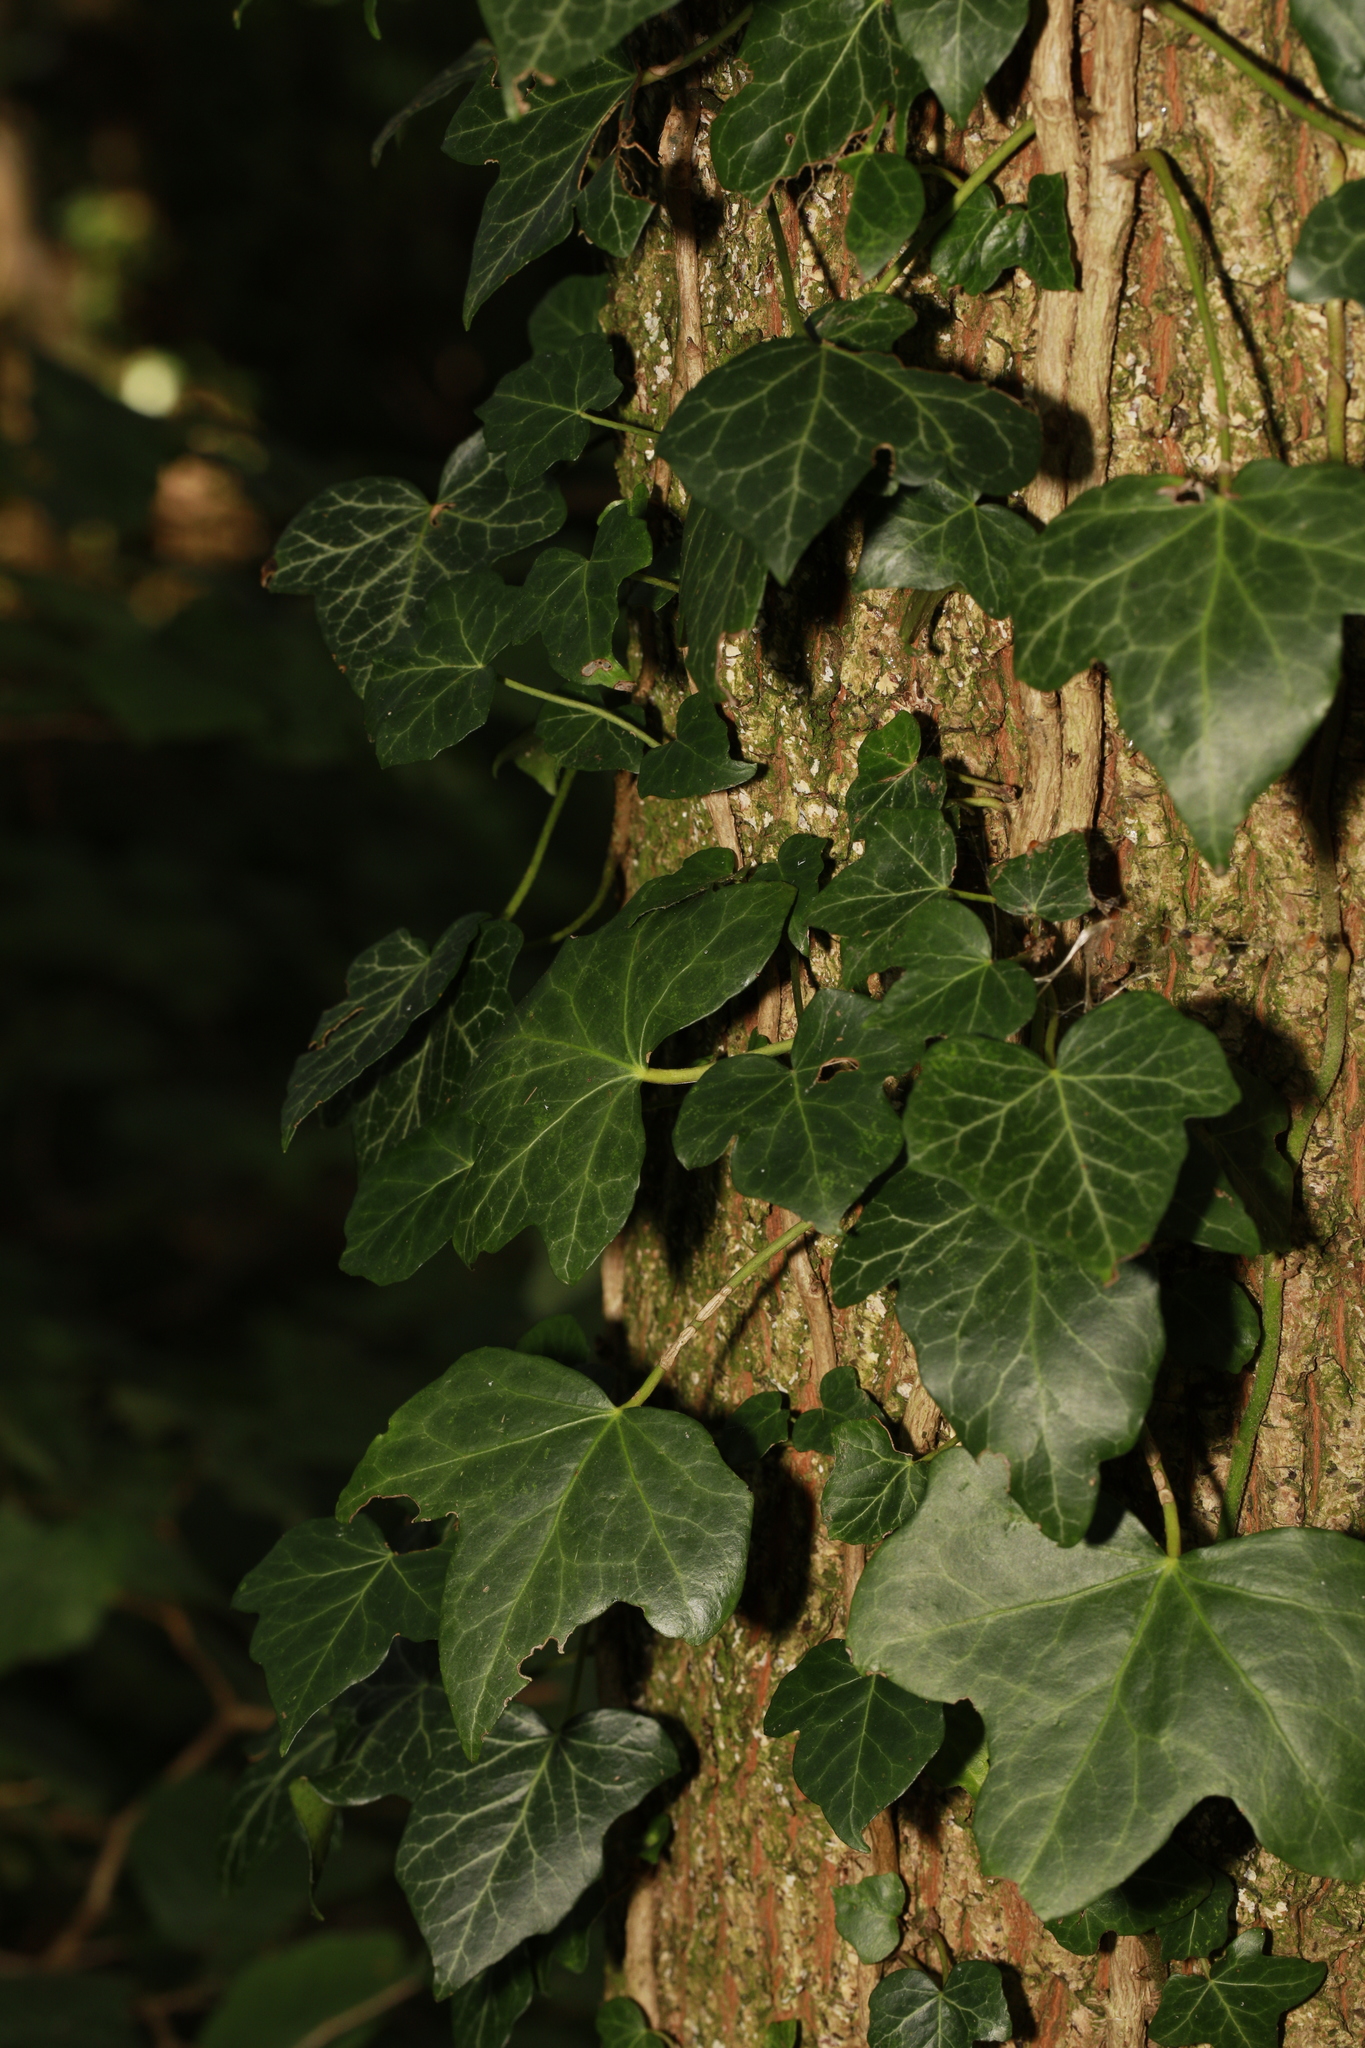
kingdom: Plantae
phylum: Tracheophyta
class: Magnoliopsida
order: Apiales
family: Araliaceae
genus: Hedera
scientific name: Hedera helix
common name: Ivy
